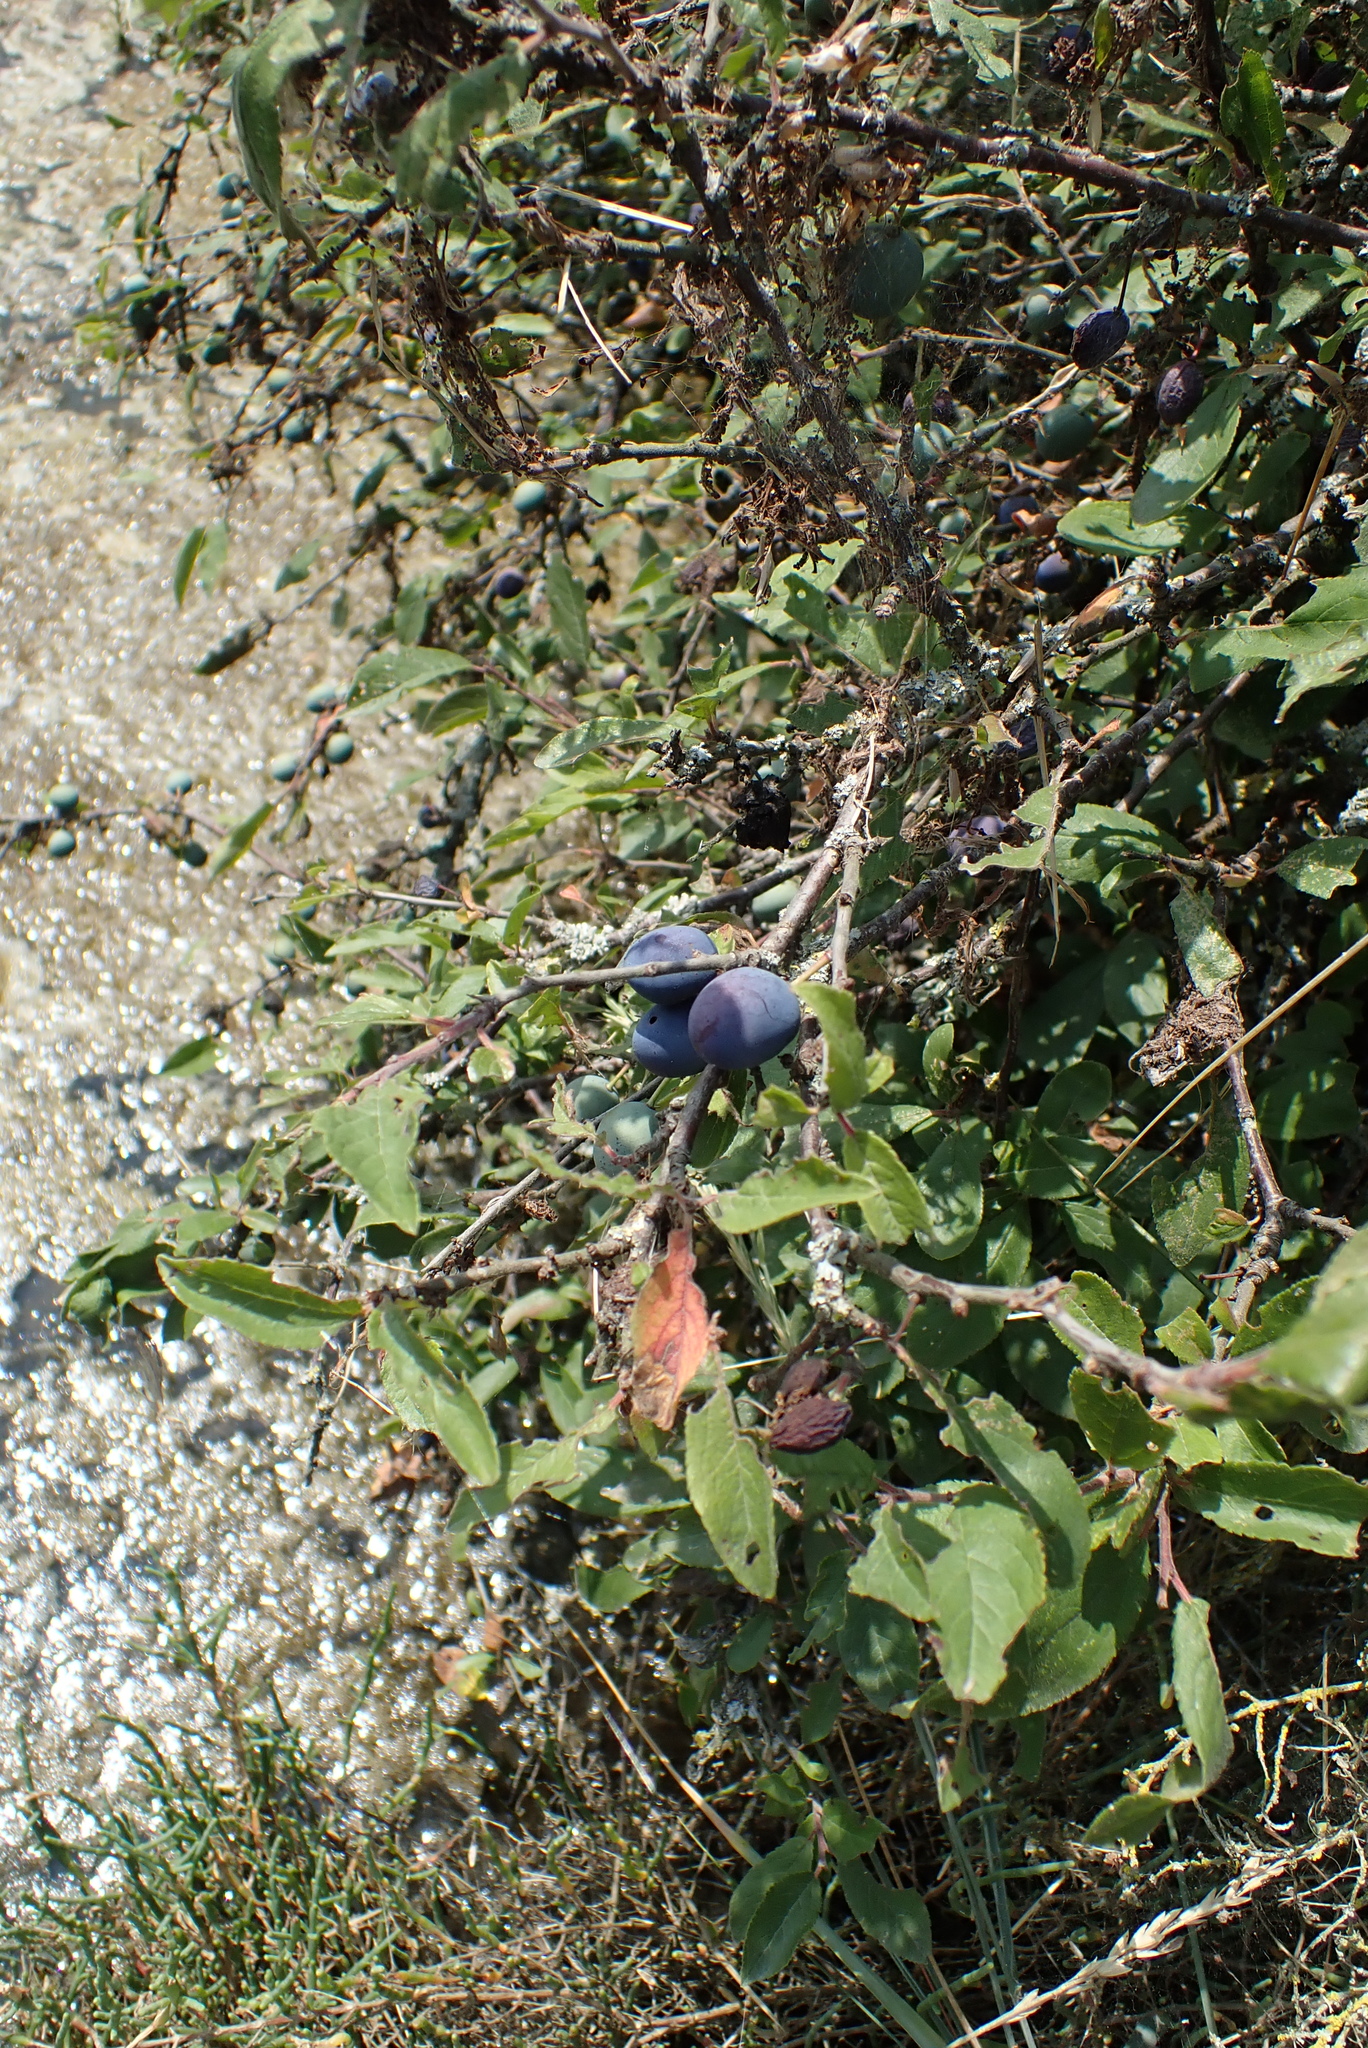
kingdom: Plantae
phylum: Tracheophyta
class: Magnoliopsida
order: Rosales
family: Rosaceae
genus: Prunus
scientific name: Prunus spinosa
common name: Blackthorn
